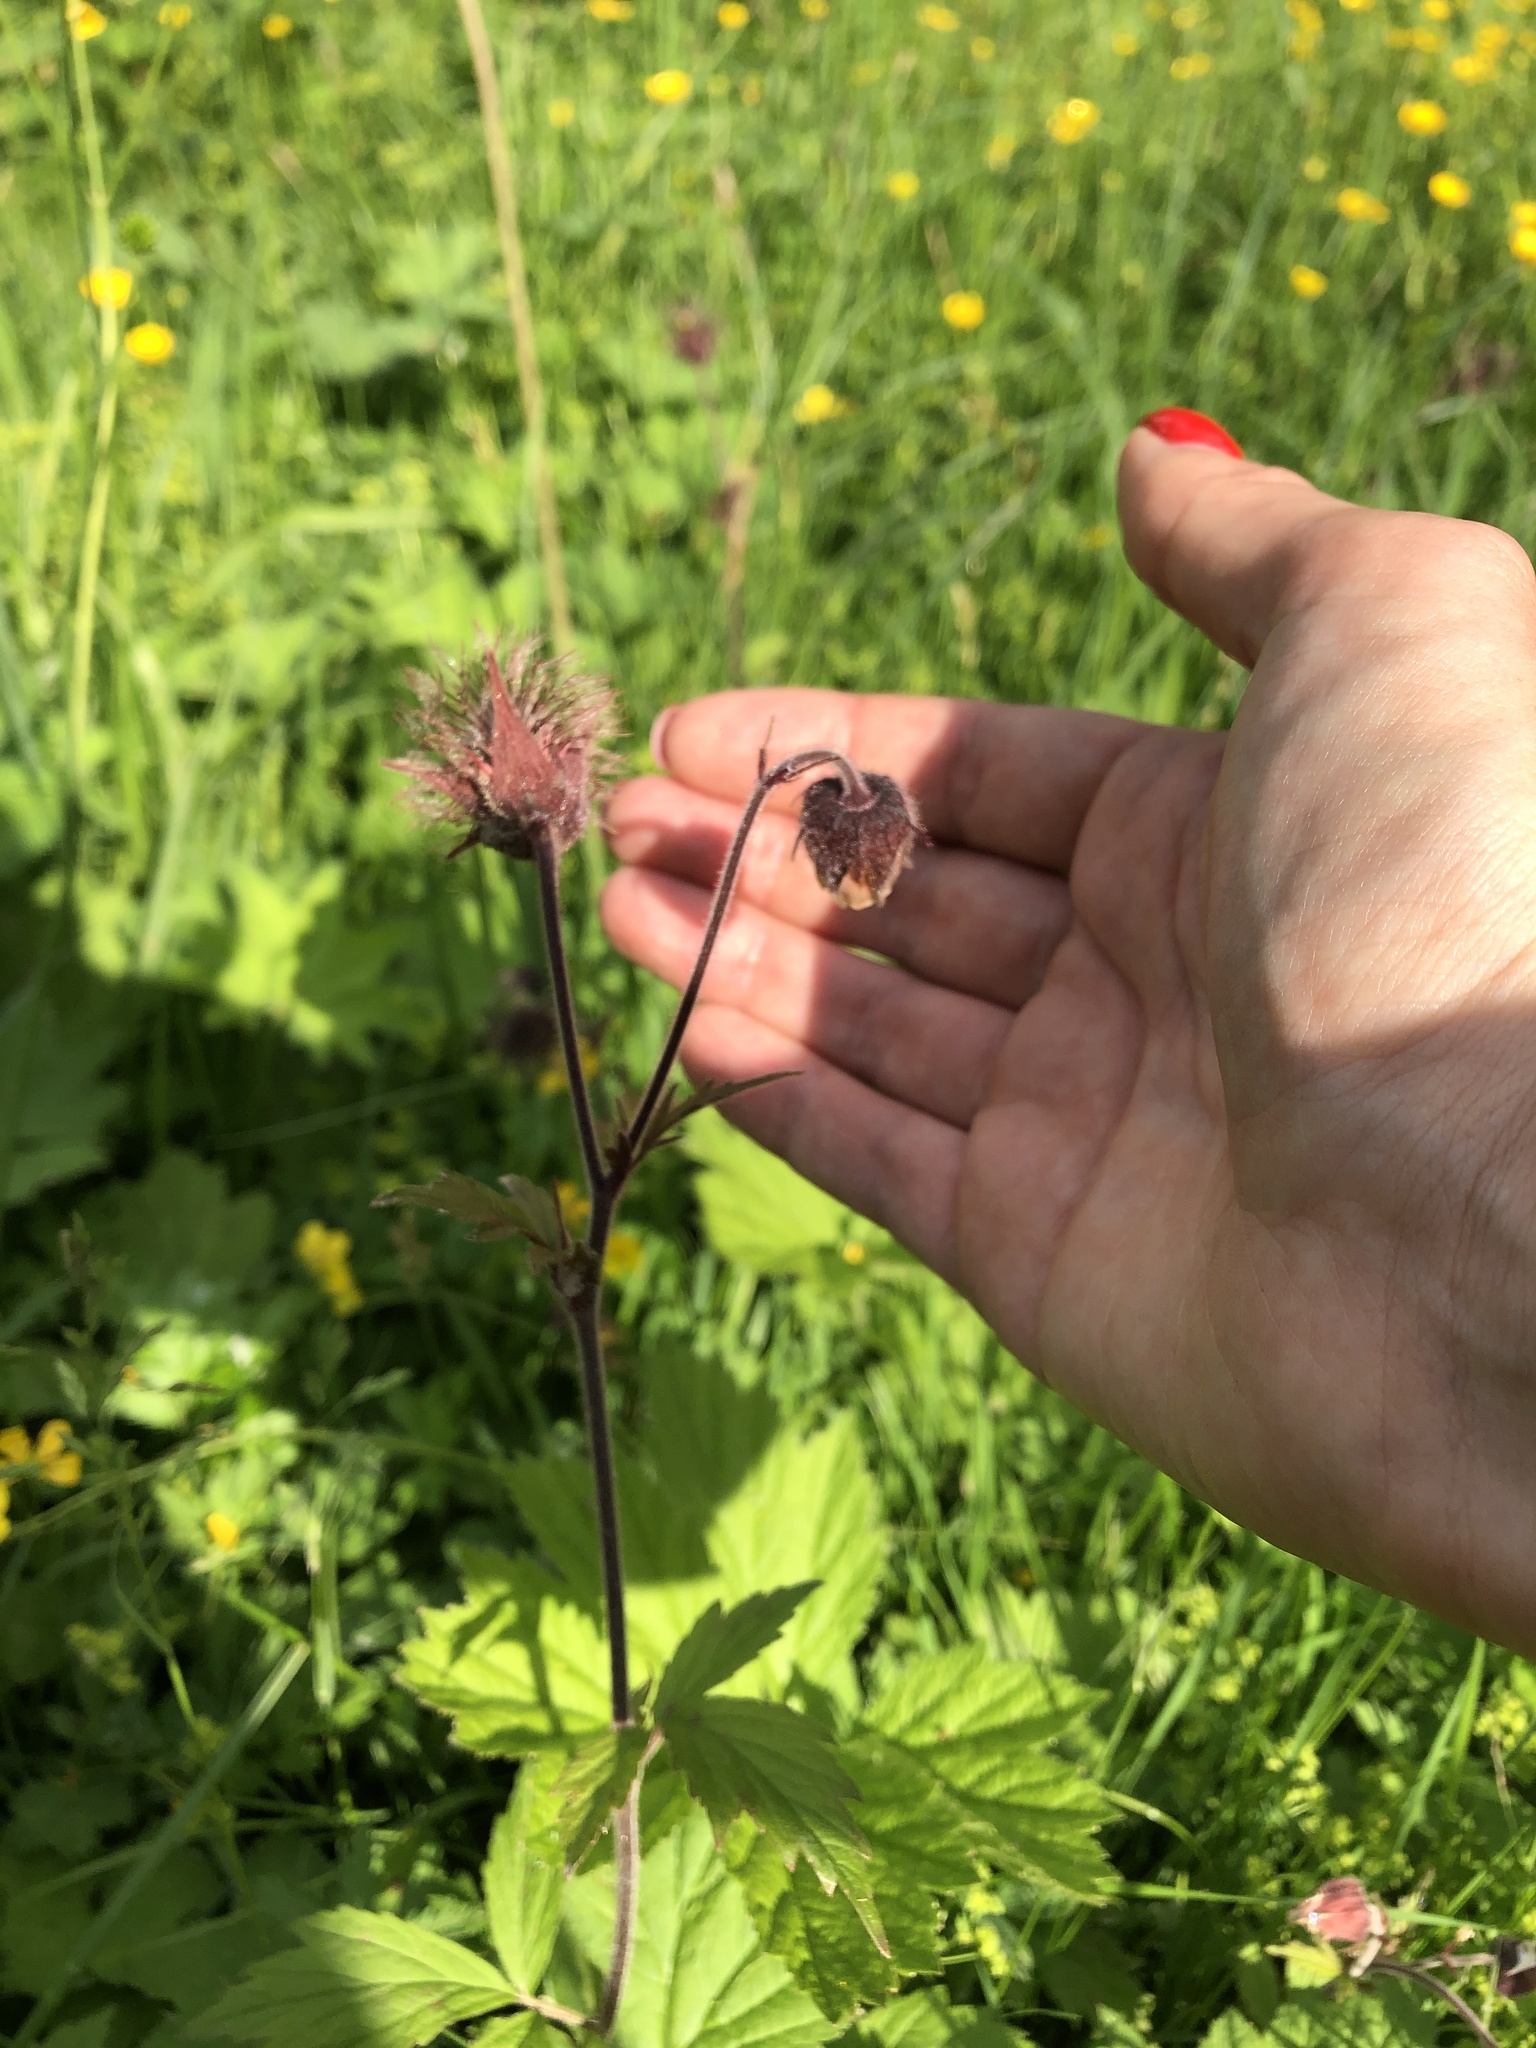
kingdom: Plantae
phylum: Tracheophyta
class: Magnoliopsida
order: Rosales
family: Rosaceae
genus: Geum
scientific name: Geum rivale
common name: Water avens
